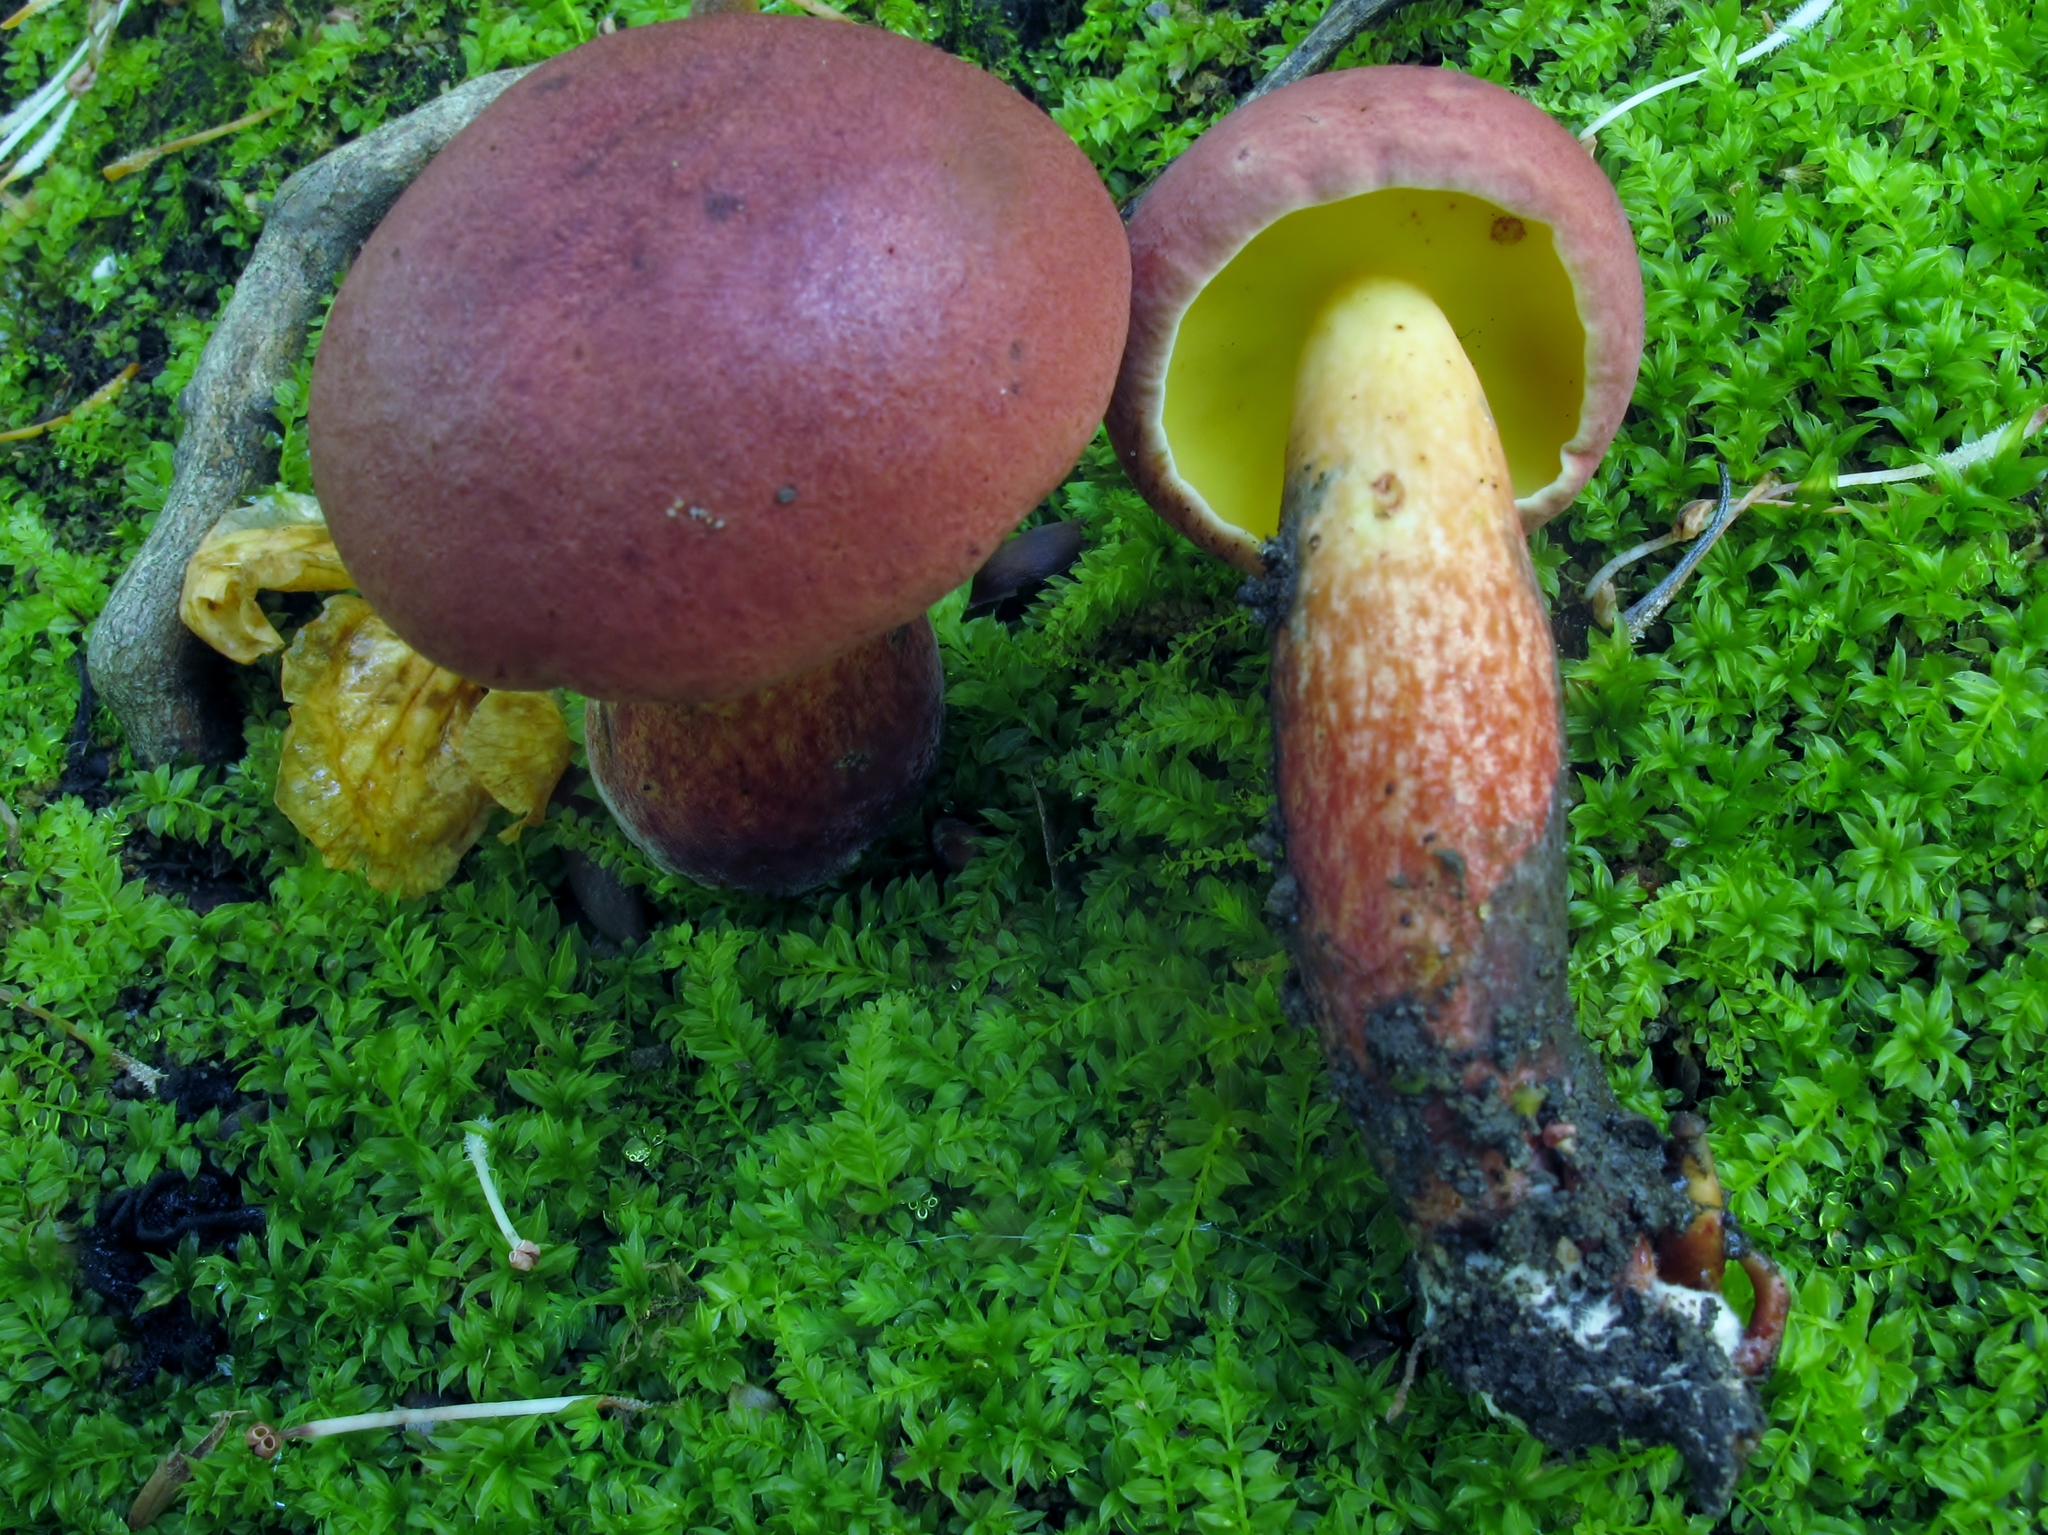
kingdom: Fungi
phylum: Basidiomycota
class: Agaricomycetes
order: Boletales
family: Boletaceae
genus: Baorangia
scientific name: Baorangia bicolor
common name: Two-colored bolete
